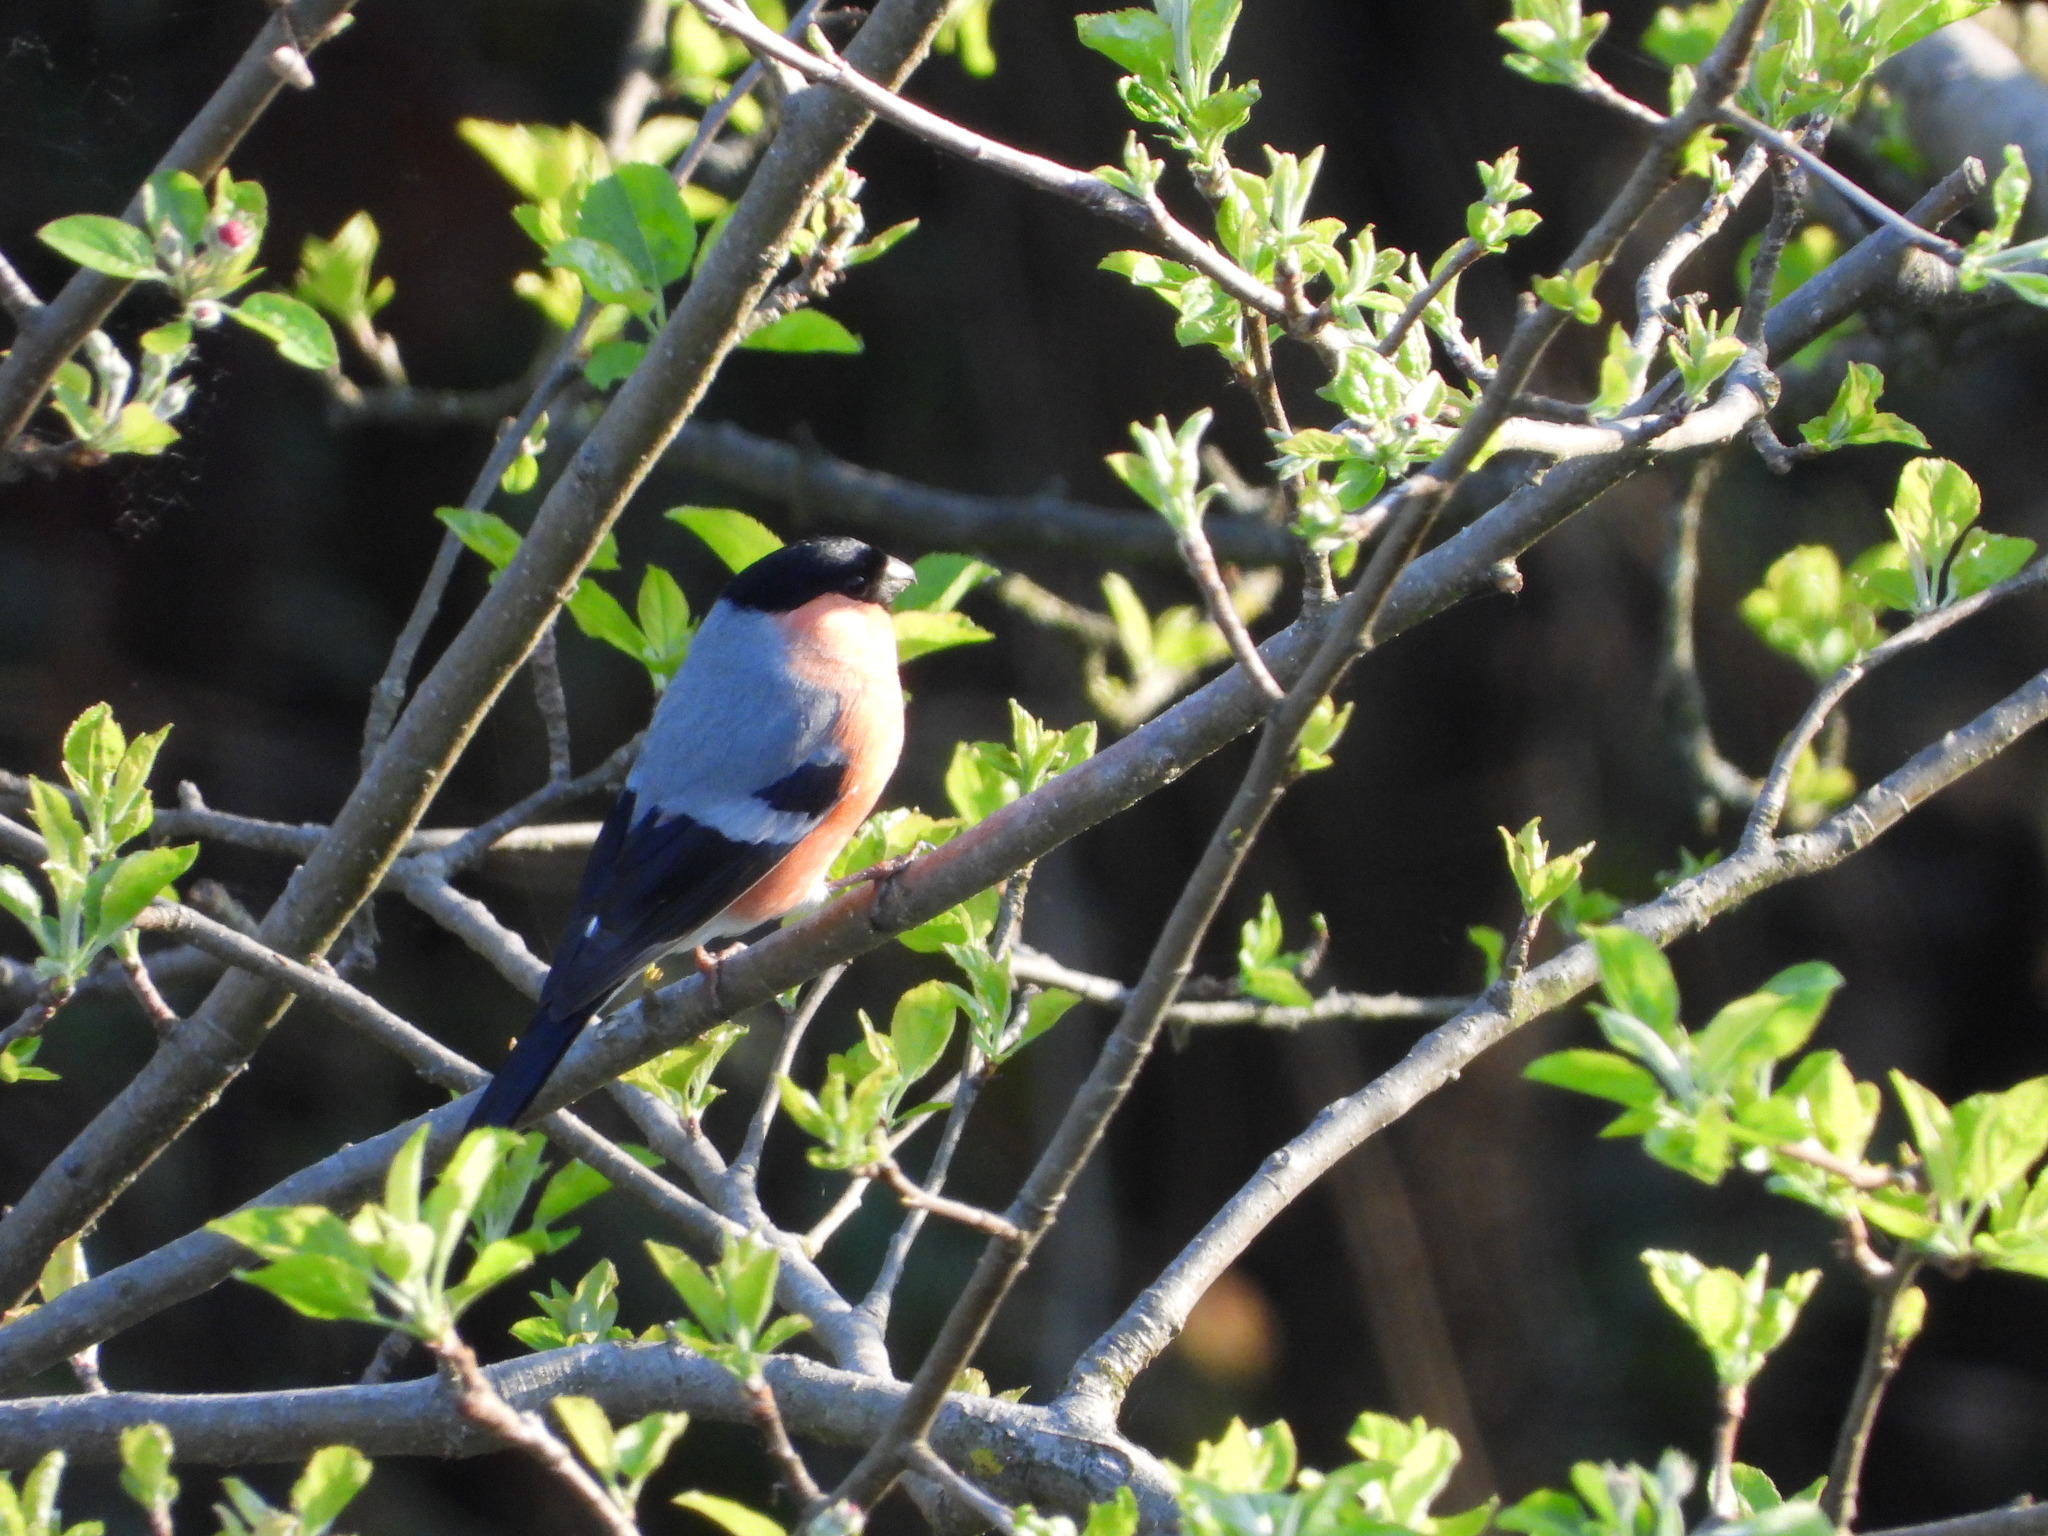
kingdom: Animalia
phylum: Chordata
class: Aves
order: Passeriformes
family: Fringillidae
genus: Pyrrhula
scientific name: Pyrrhula pyrrhula
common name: Eurasian bullfinch
